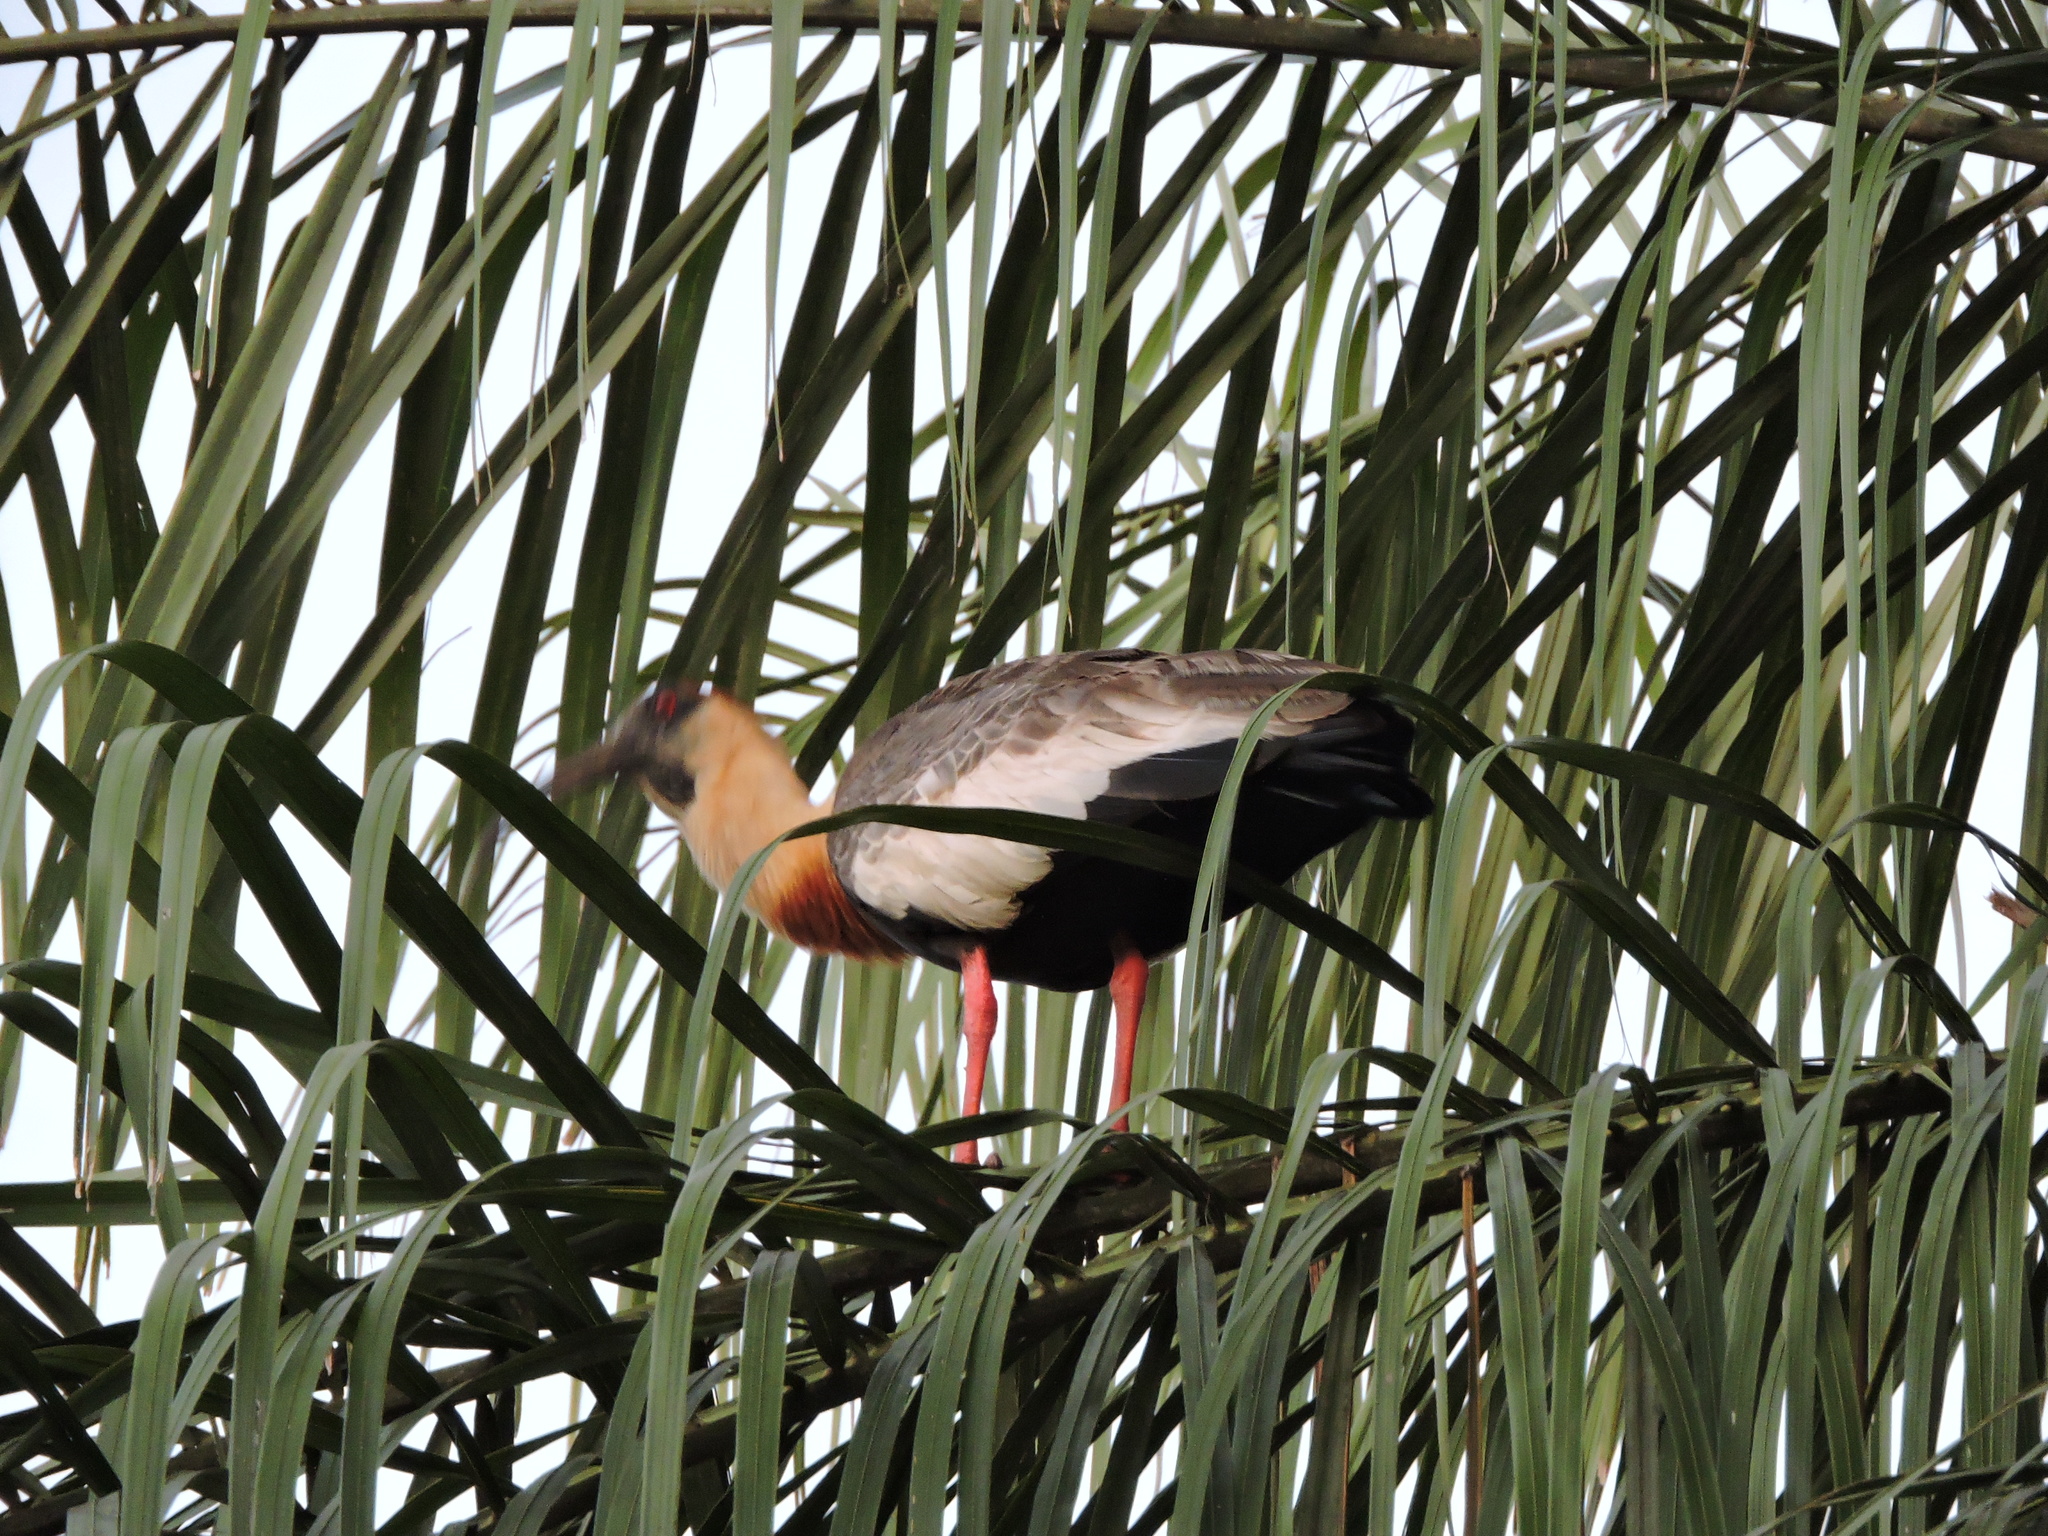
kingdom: Animalia
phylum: Chordata
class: Aves
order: Pelecaniformes
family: Threskiornithidae
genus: Theristicus
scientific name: Theristicus caudatus
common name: Buff-necked ibis
